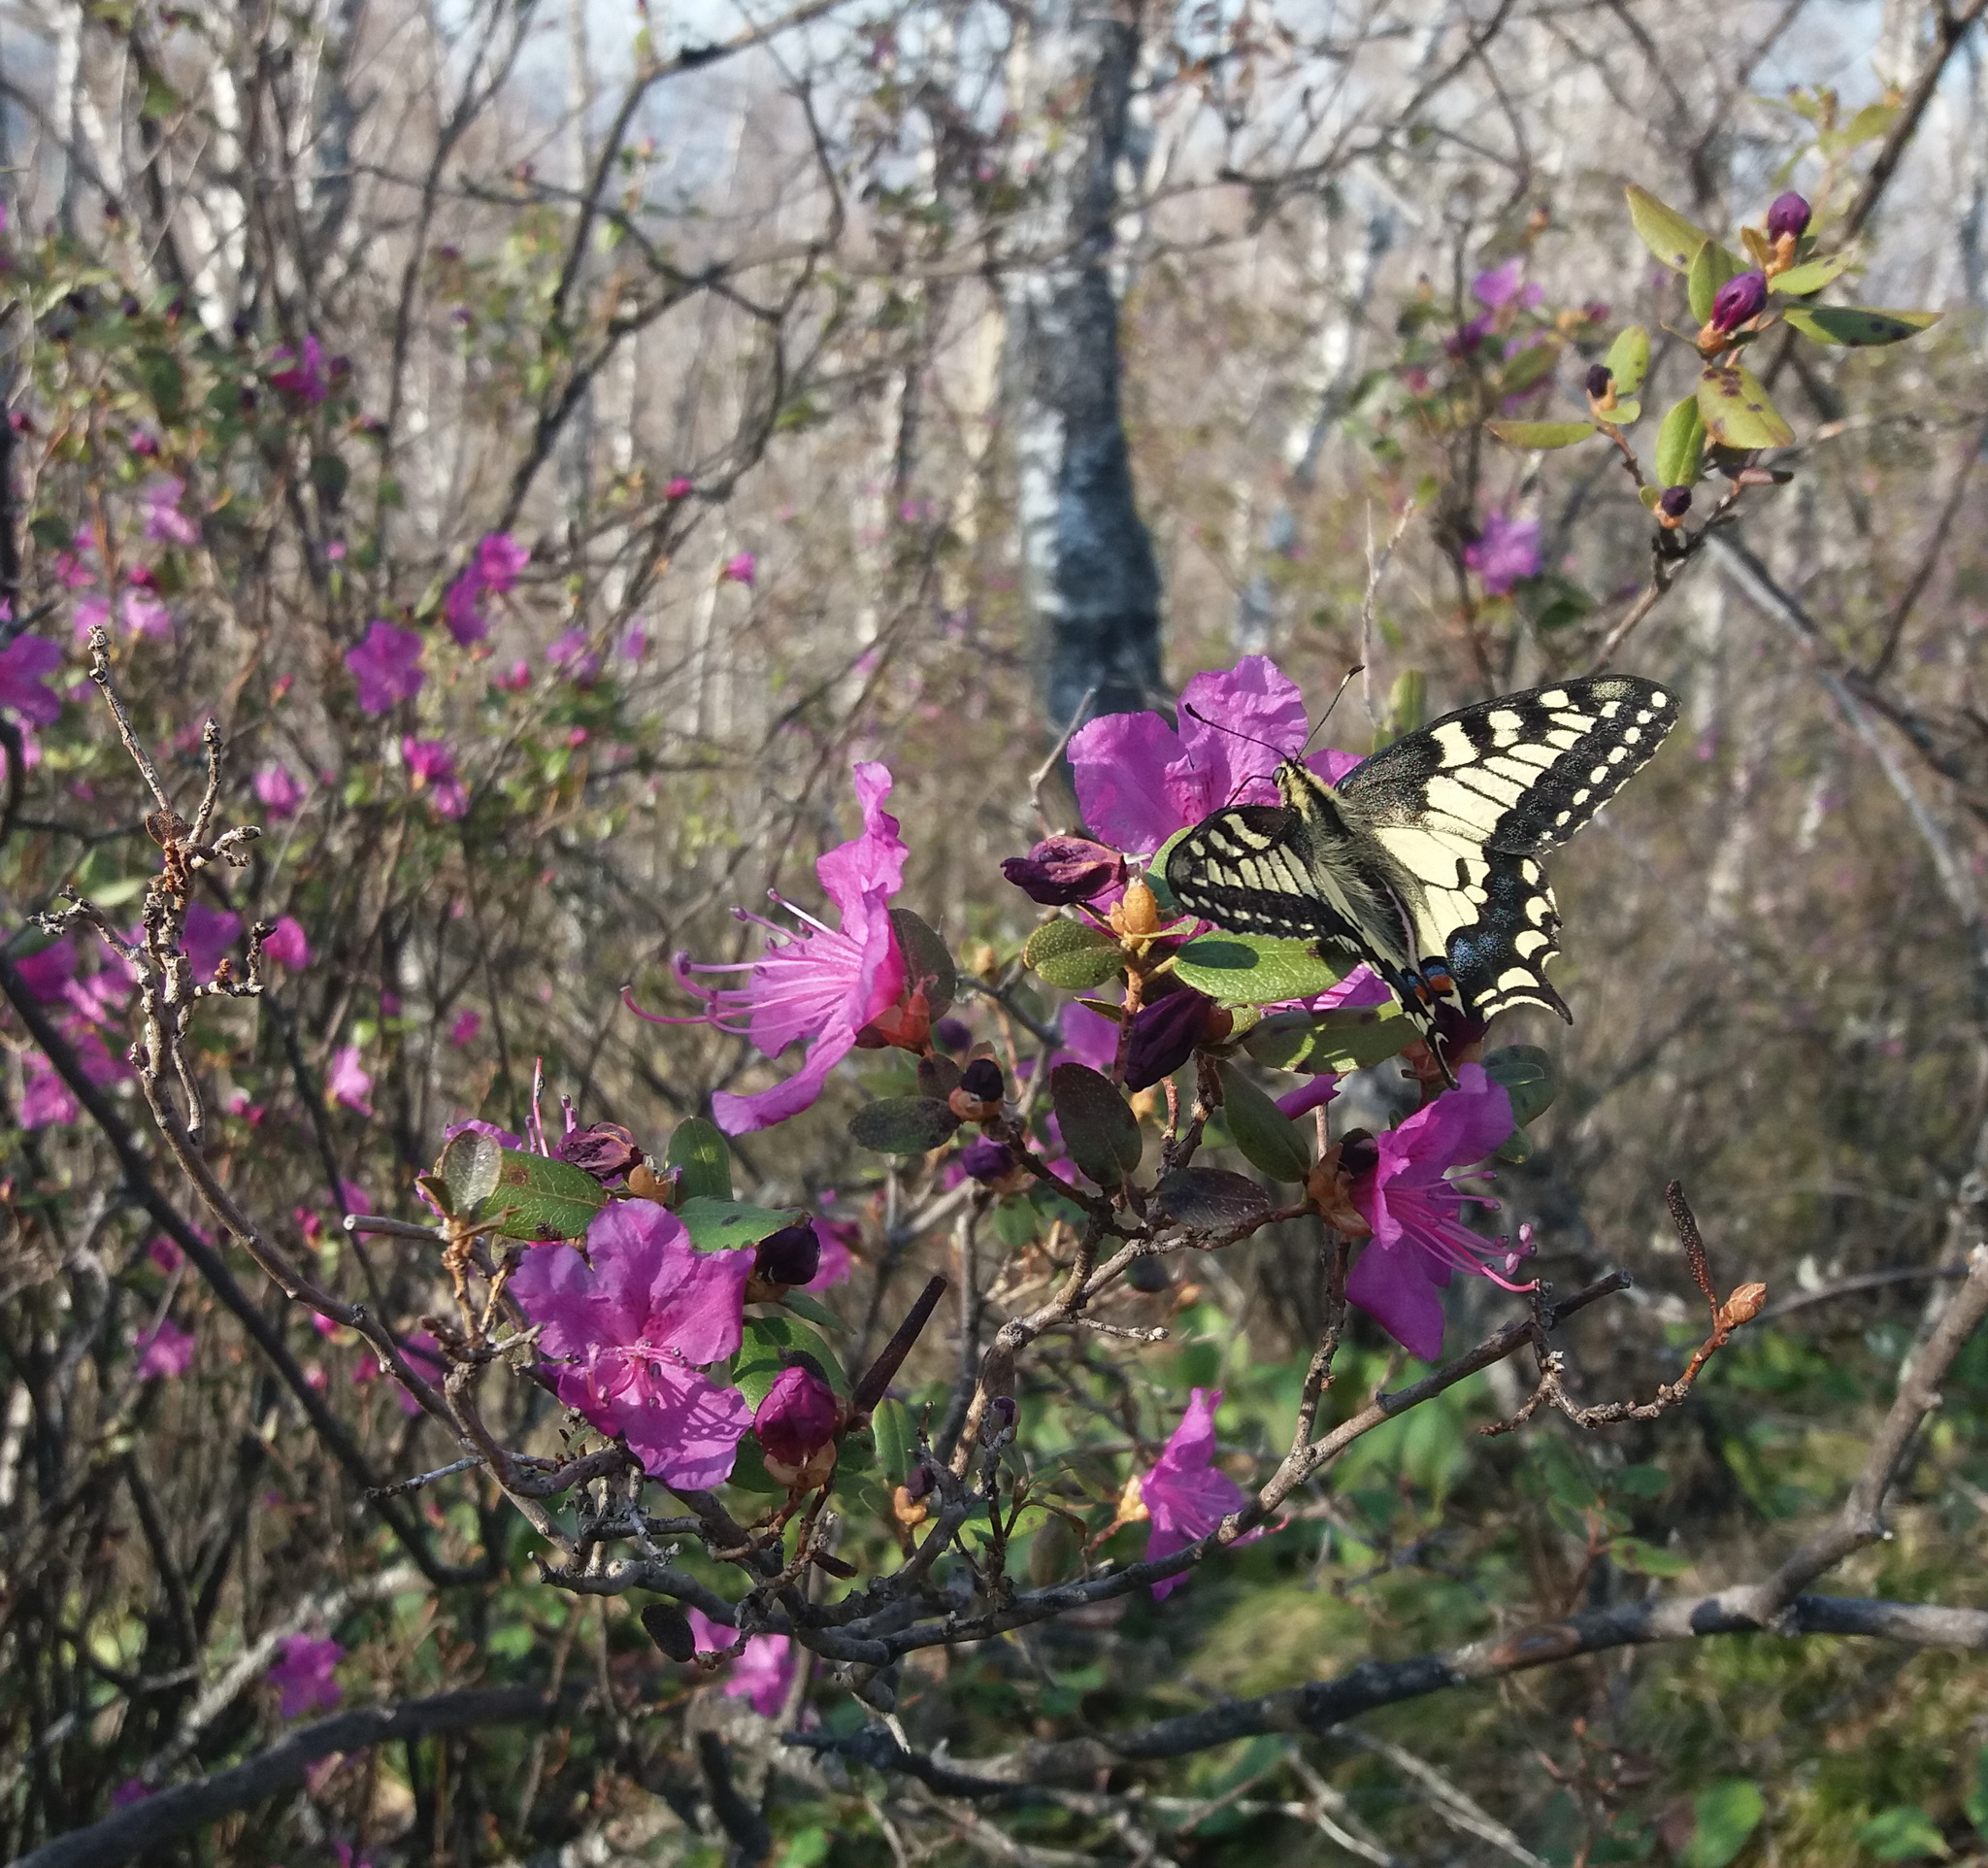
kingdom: Animalia
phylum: Arthropoda
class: Insecta
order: Lepidoptera
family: Papilionidae
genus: Papilio
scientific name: Papilio machaon
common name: Swallowtail
